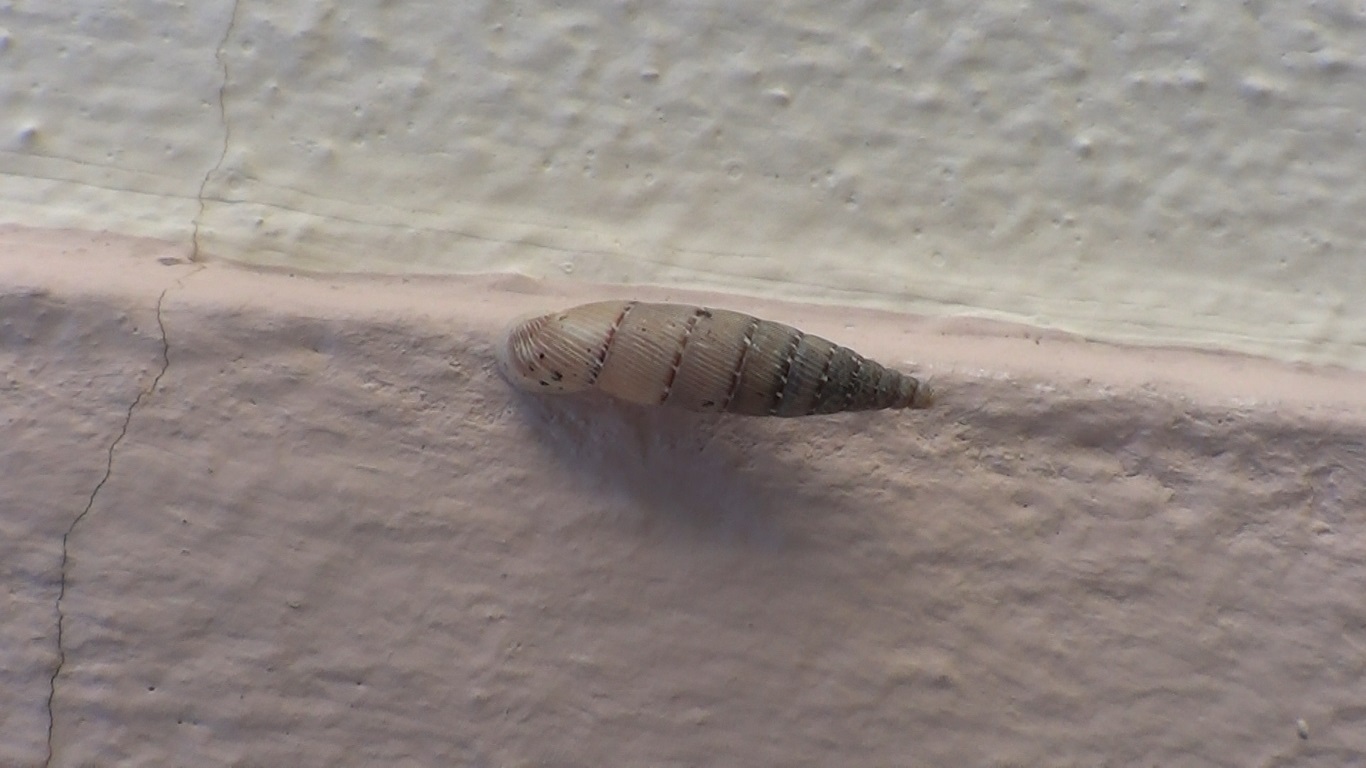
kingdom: Animalia
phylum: Mollusca
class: Gastropoda
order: Stylommatophora
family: Clausiliidae
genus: Papillifera
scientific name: Papillifera papillaris
